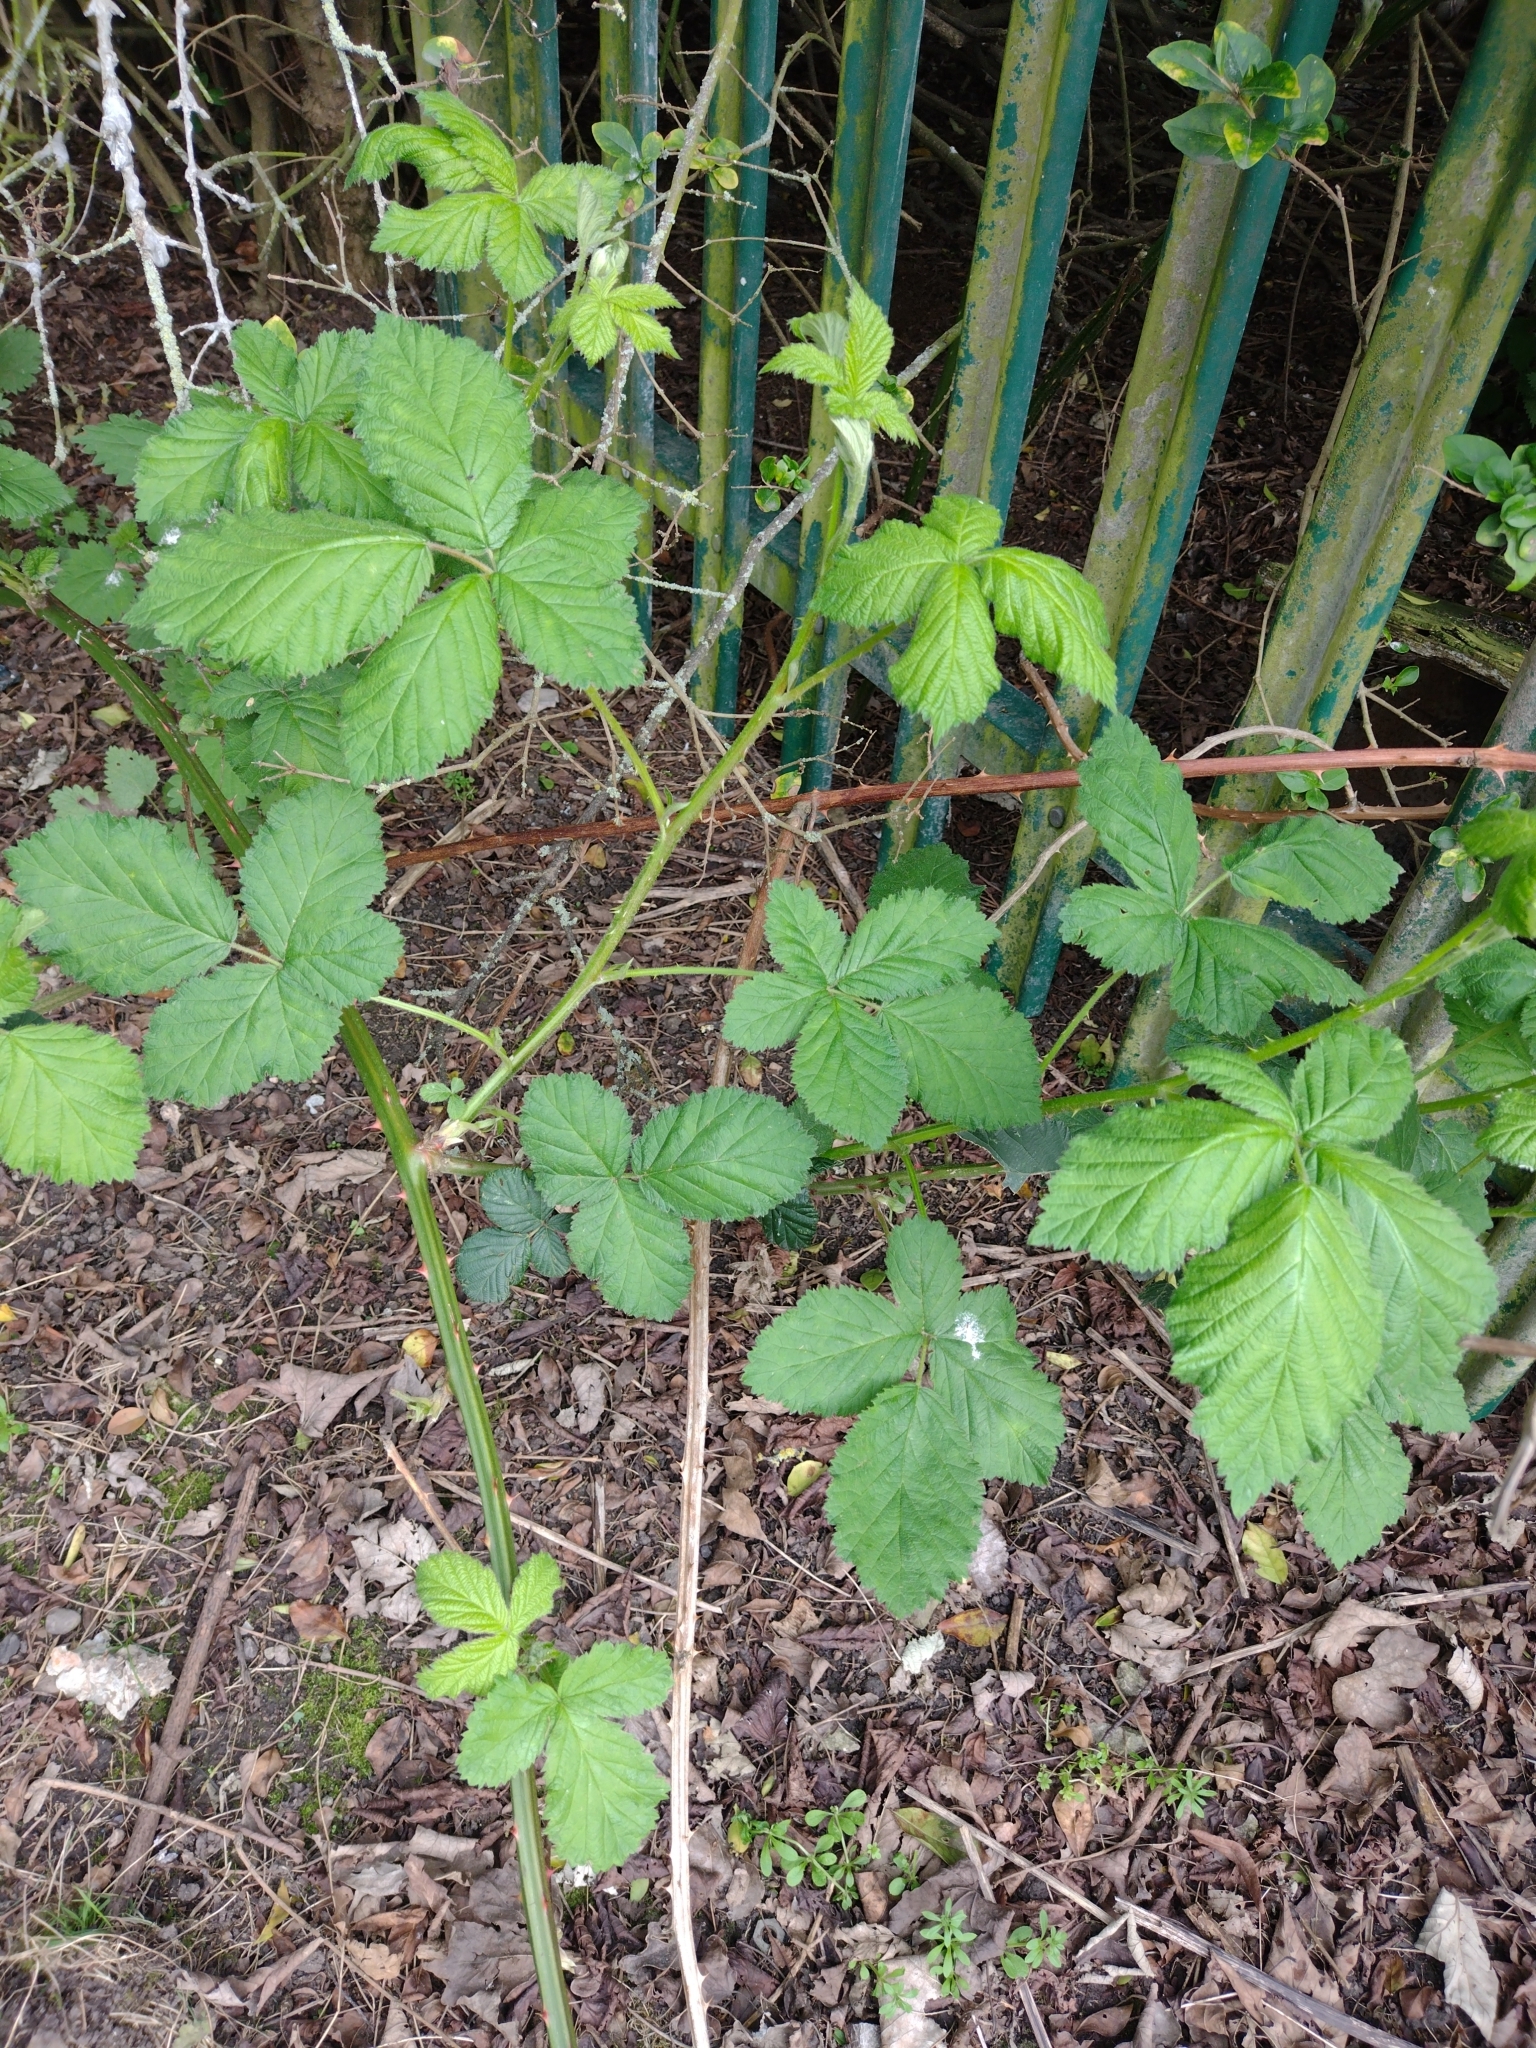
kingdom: Plantae
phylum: Tracheophyta
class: Magnoliopsida
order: Rosales
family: Rosaceae
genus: Rubus
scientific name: Rubus fruticosus
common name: Blackberry, bramble
